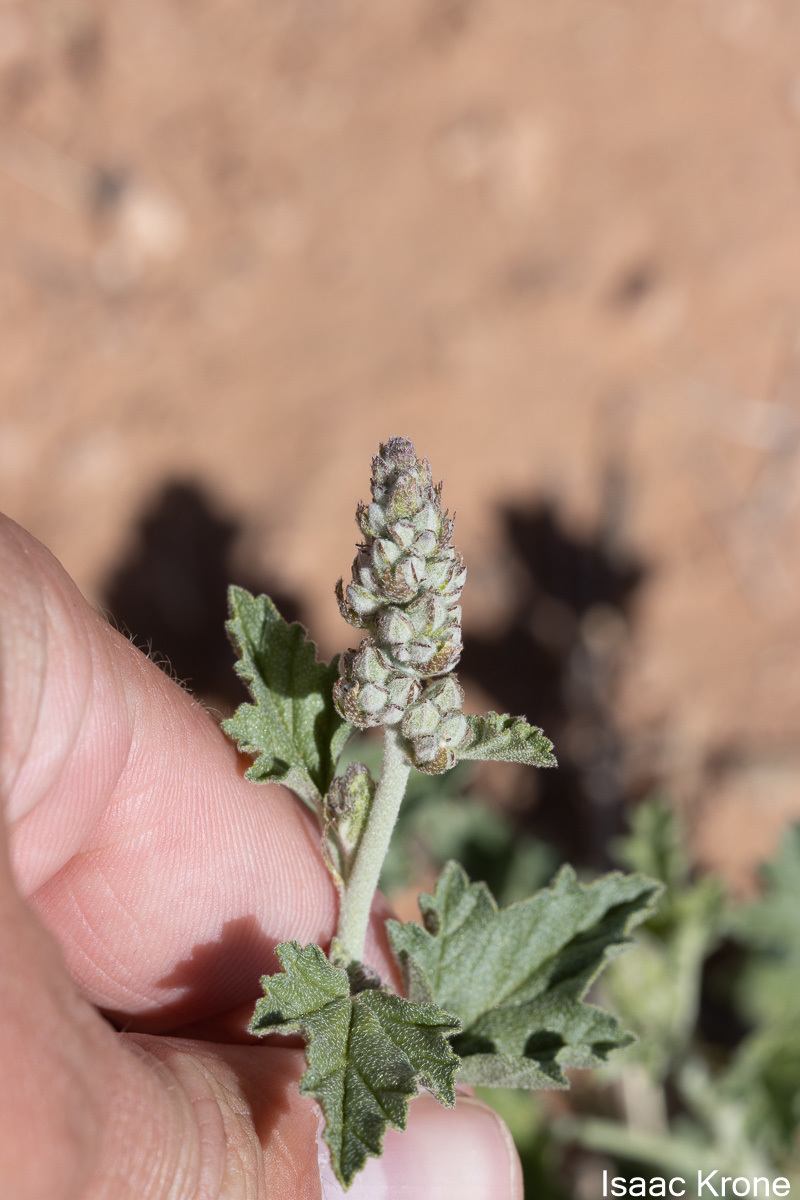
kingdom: Plantae
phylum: Tracheophyta
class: Magnoliopsida
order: Malvales
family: Malvaceae
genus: Sphaeralcea
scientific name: Sphaeralcea parvifolia
